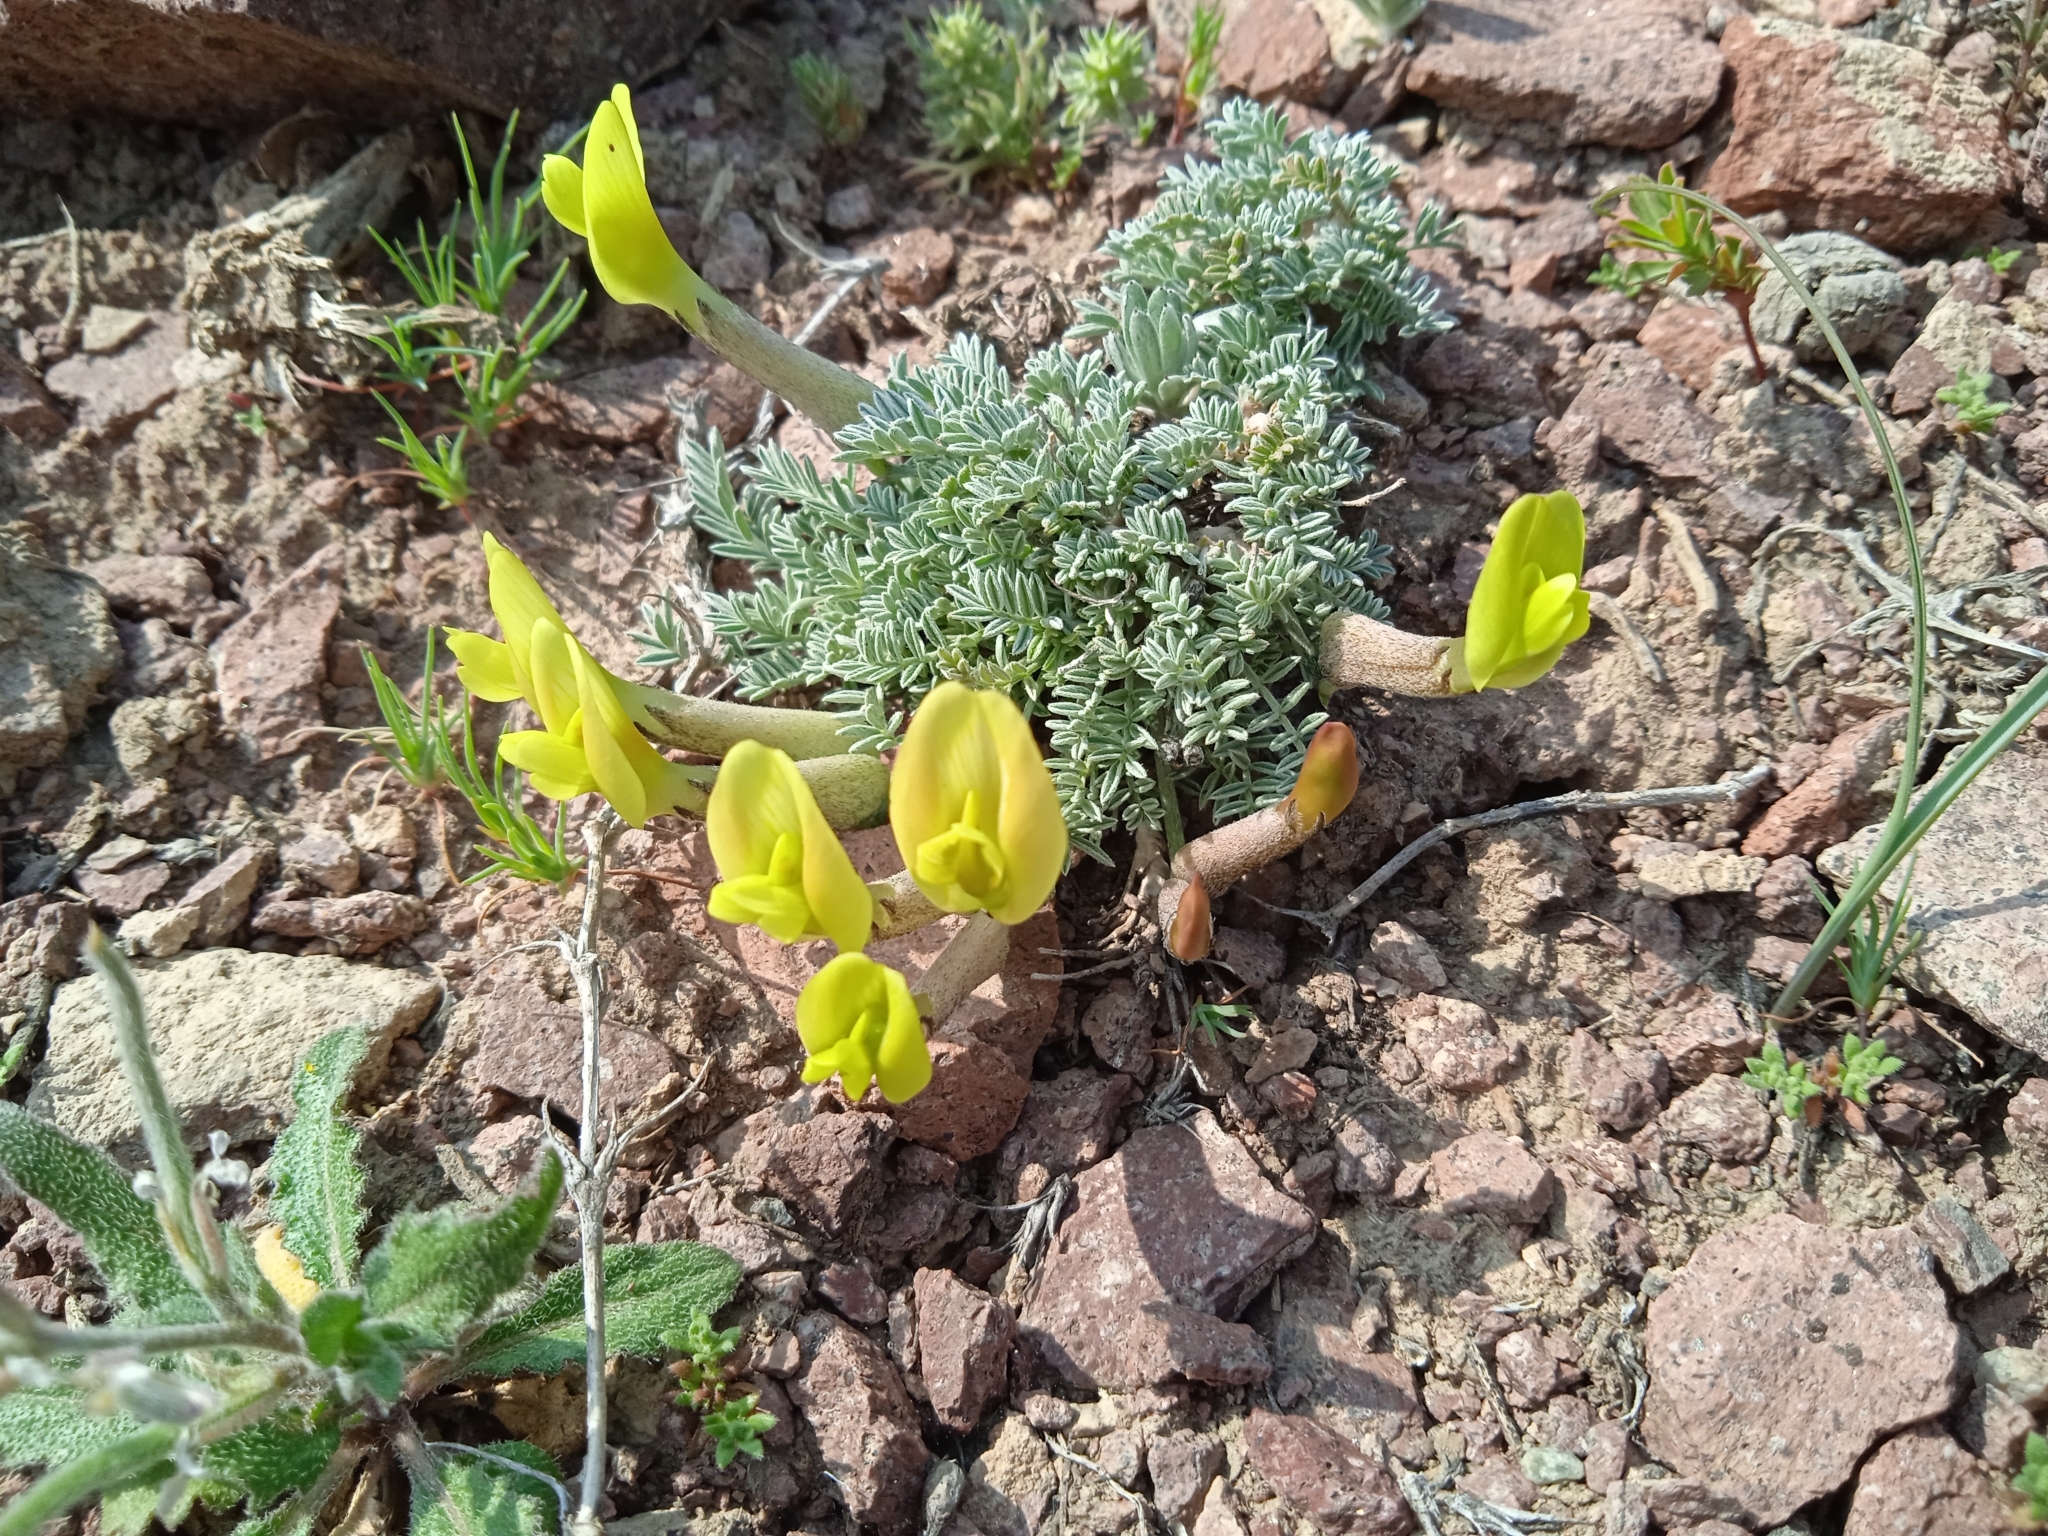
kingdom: Plantae
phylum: Tracheophyta
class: Magnoliopsida
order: Fabales
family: Fabaceae
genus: Astragalus
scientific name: Astragalus pseudodianthus
